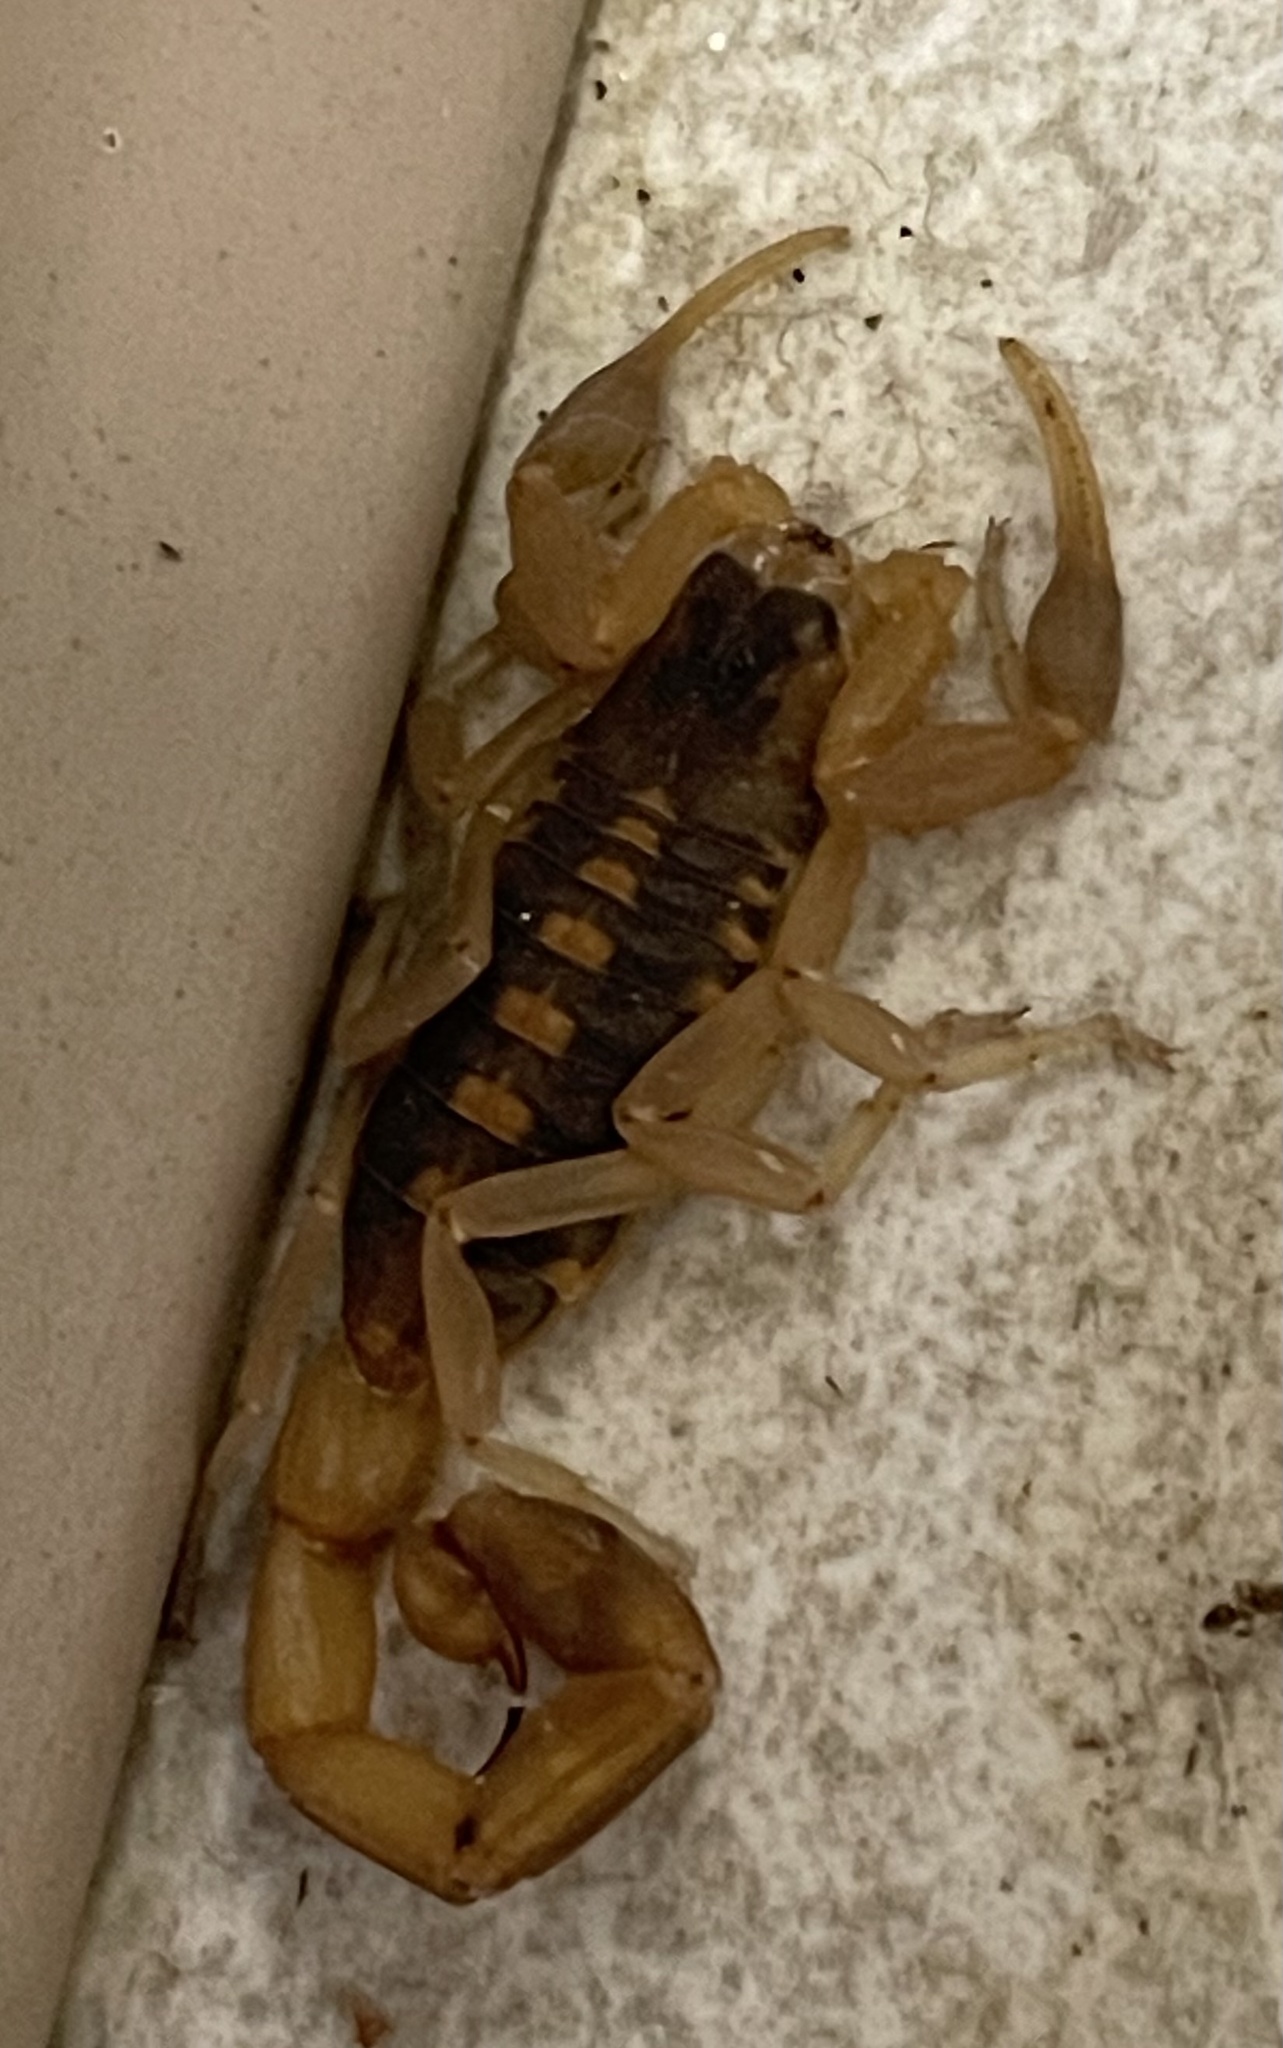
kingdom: Animalia
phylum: Arthropoda
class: Arachnida
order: Scorpiones
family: Buthidae
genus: Centruroides
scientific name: Centruroides vittatus
